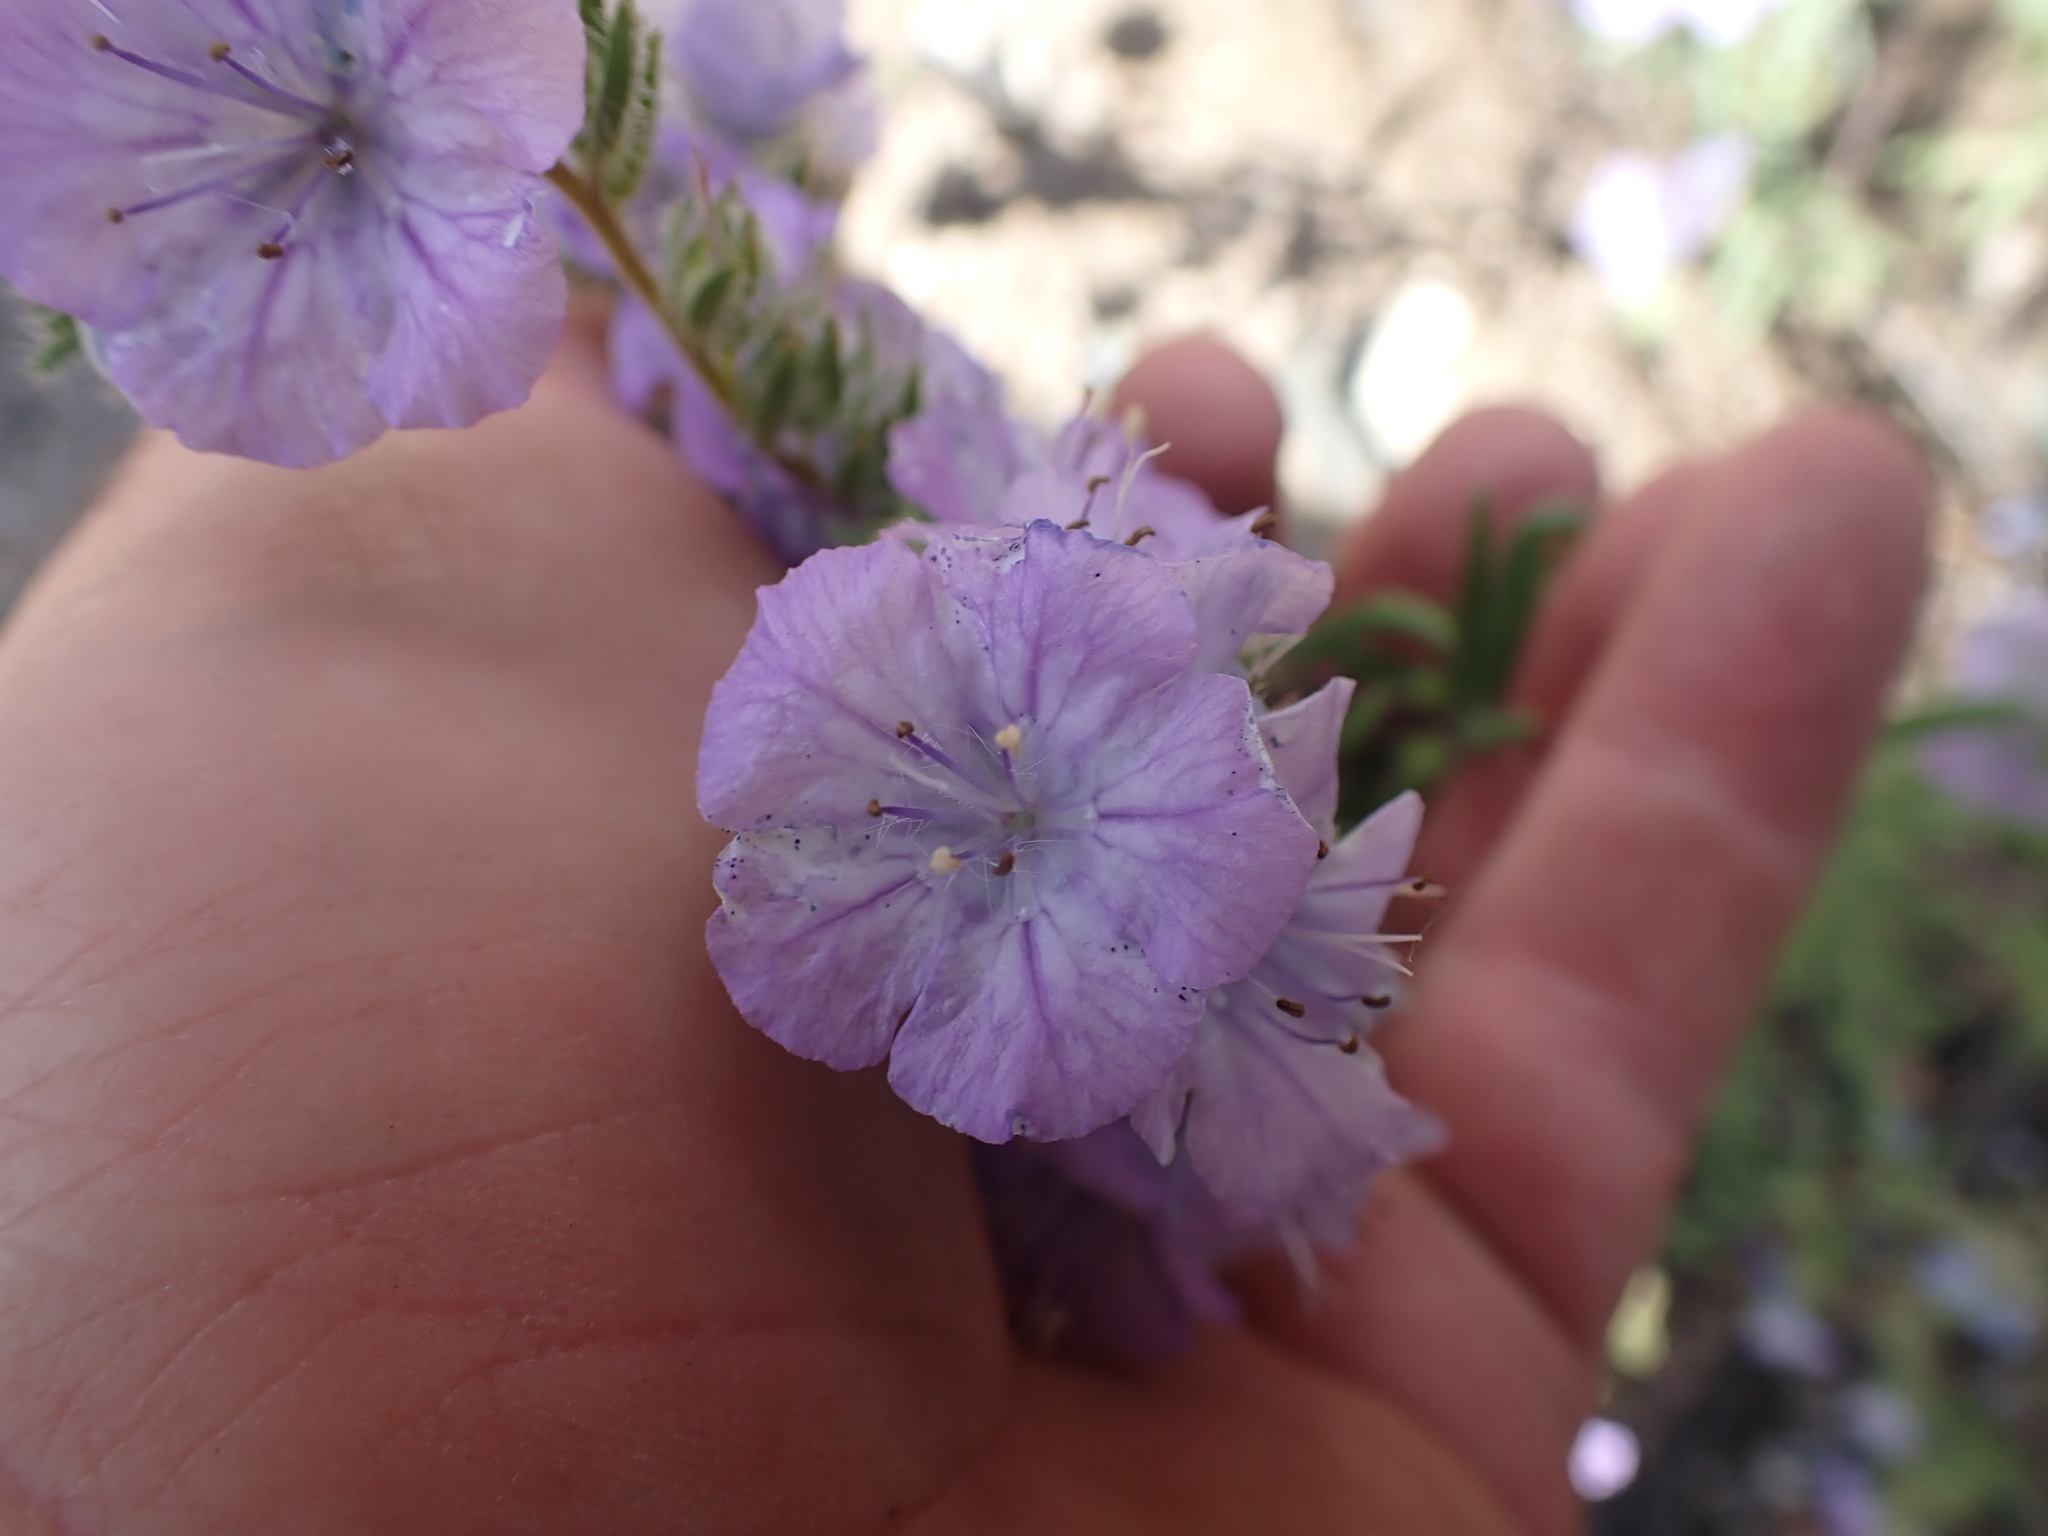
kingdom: Plantae
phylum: Tracheophyta
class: Magnoliopsida
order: Boraginales
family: Hydrophyllaceae
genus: Phacelia
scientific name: Phacelia linearis
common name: Linear-leaved phacelia
